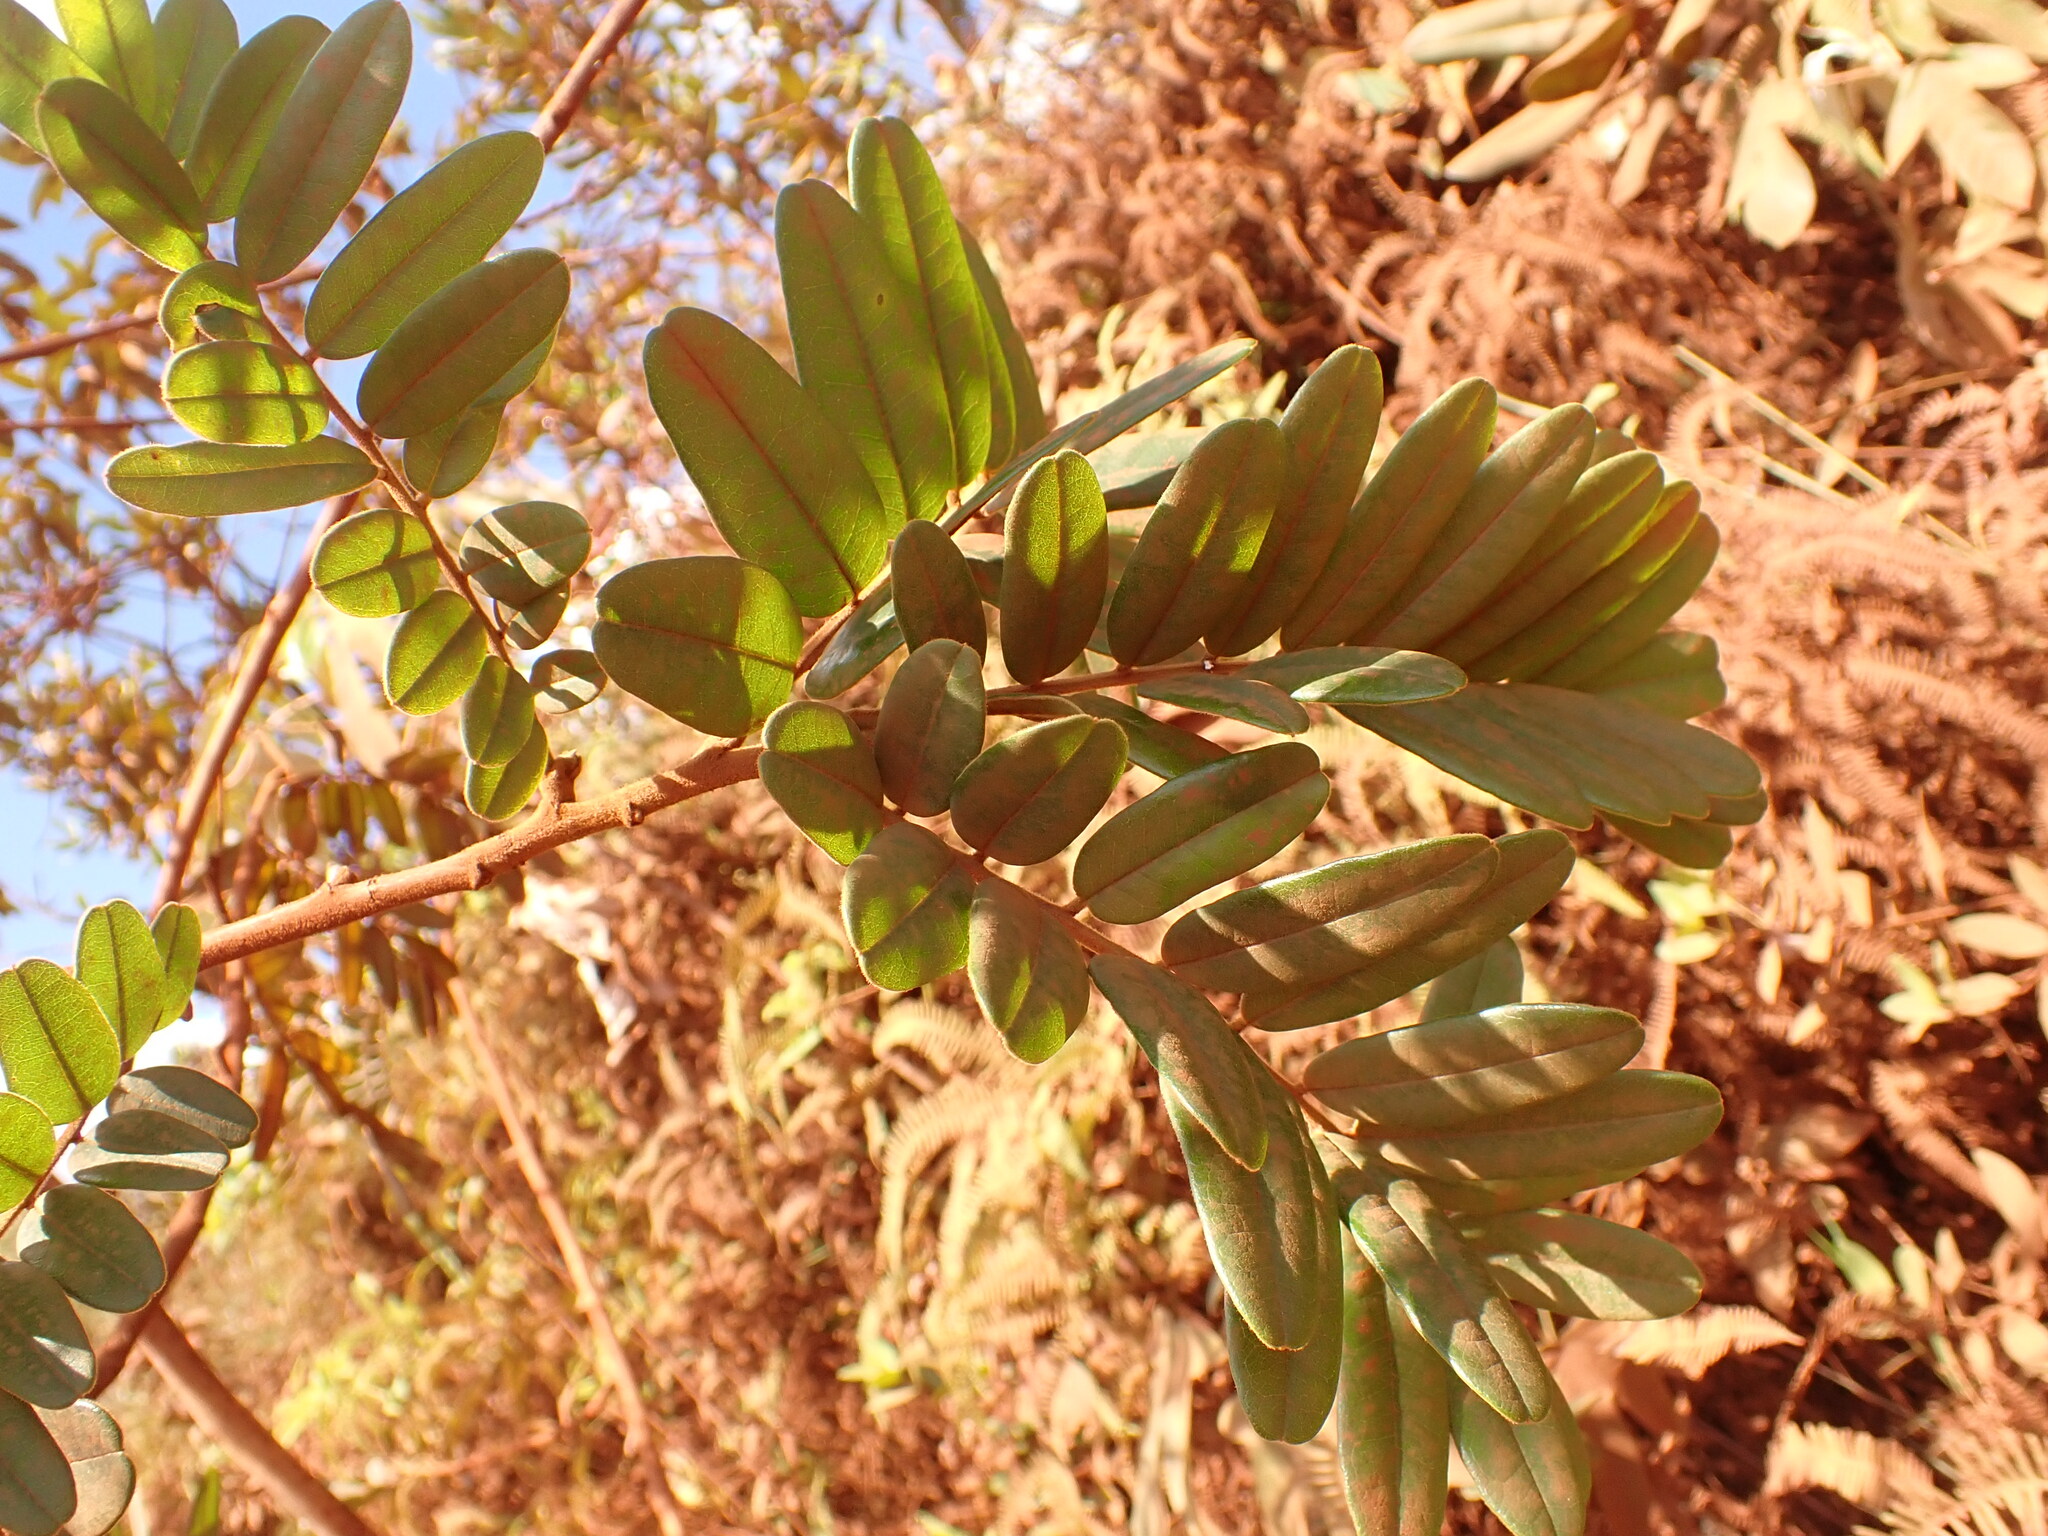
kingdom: Plantae
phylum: Tracheophyta
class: Magnoliopsida
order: Fabales
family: Fabaceae
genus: Bowdichia
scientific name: Bowdichia virgilioides
